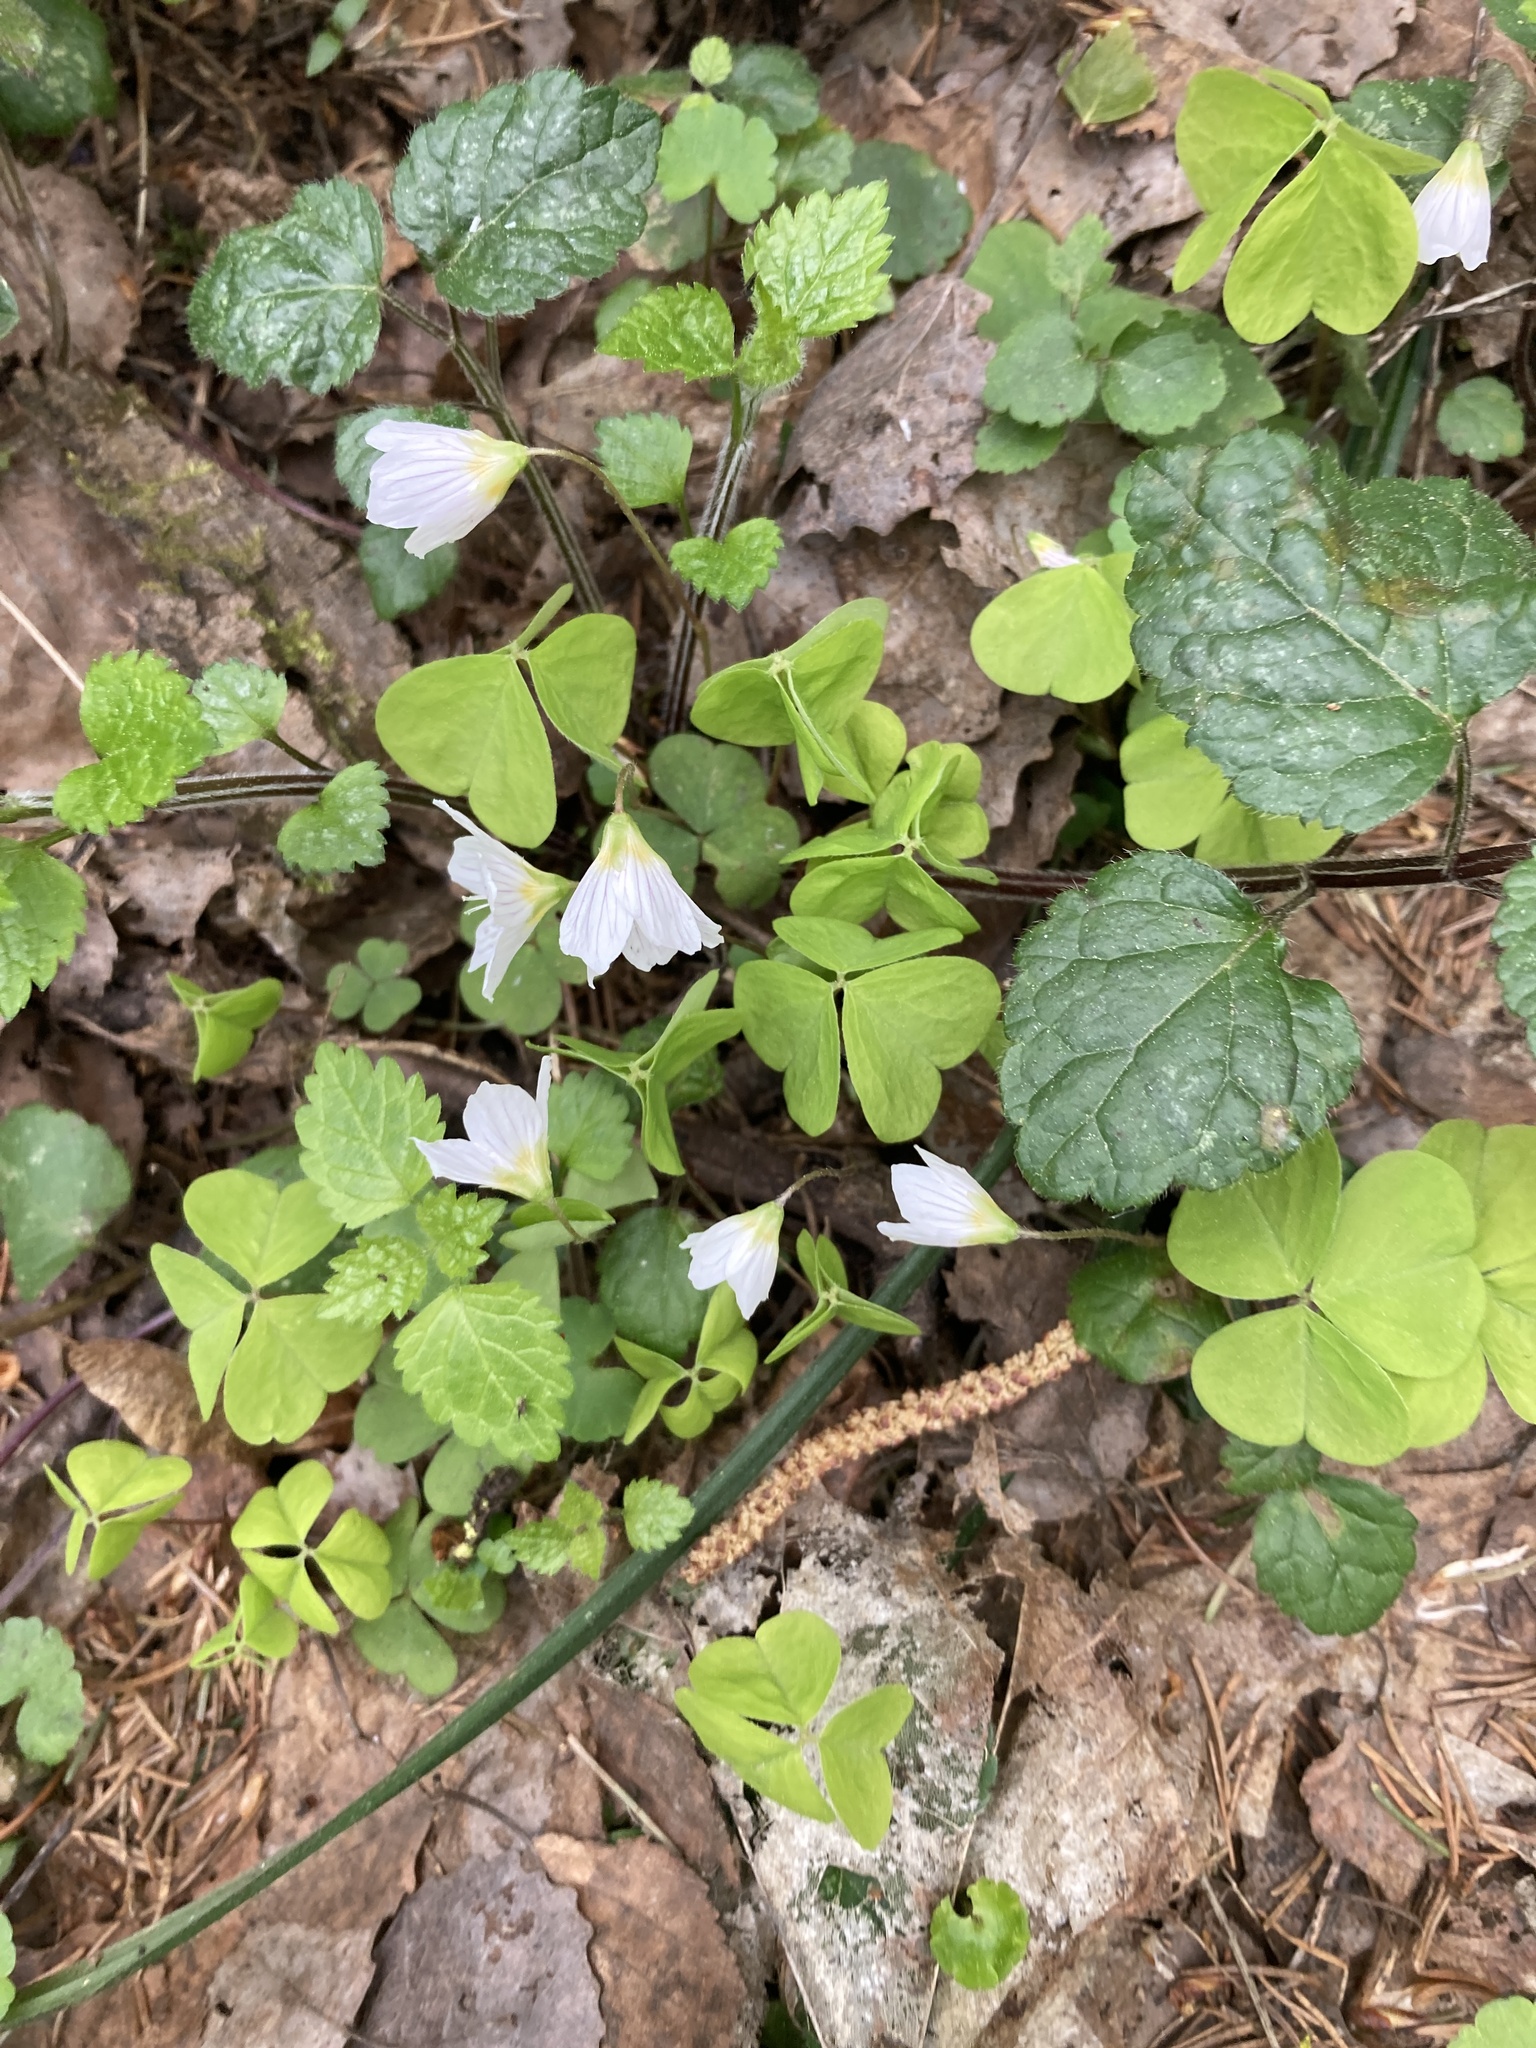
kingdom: Plantae
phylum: Tracheophyta
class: Magnoliopsida
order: Oxalidales
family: Oxalidaceae
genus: Oxalis
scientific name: Oxalis acetosella
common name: Wood-sorrel
